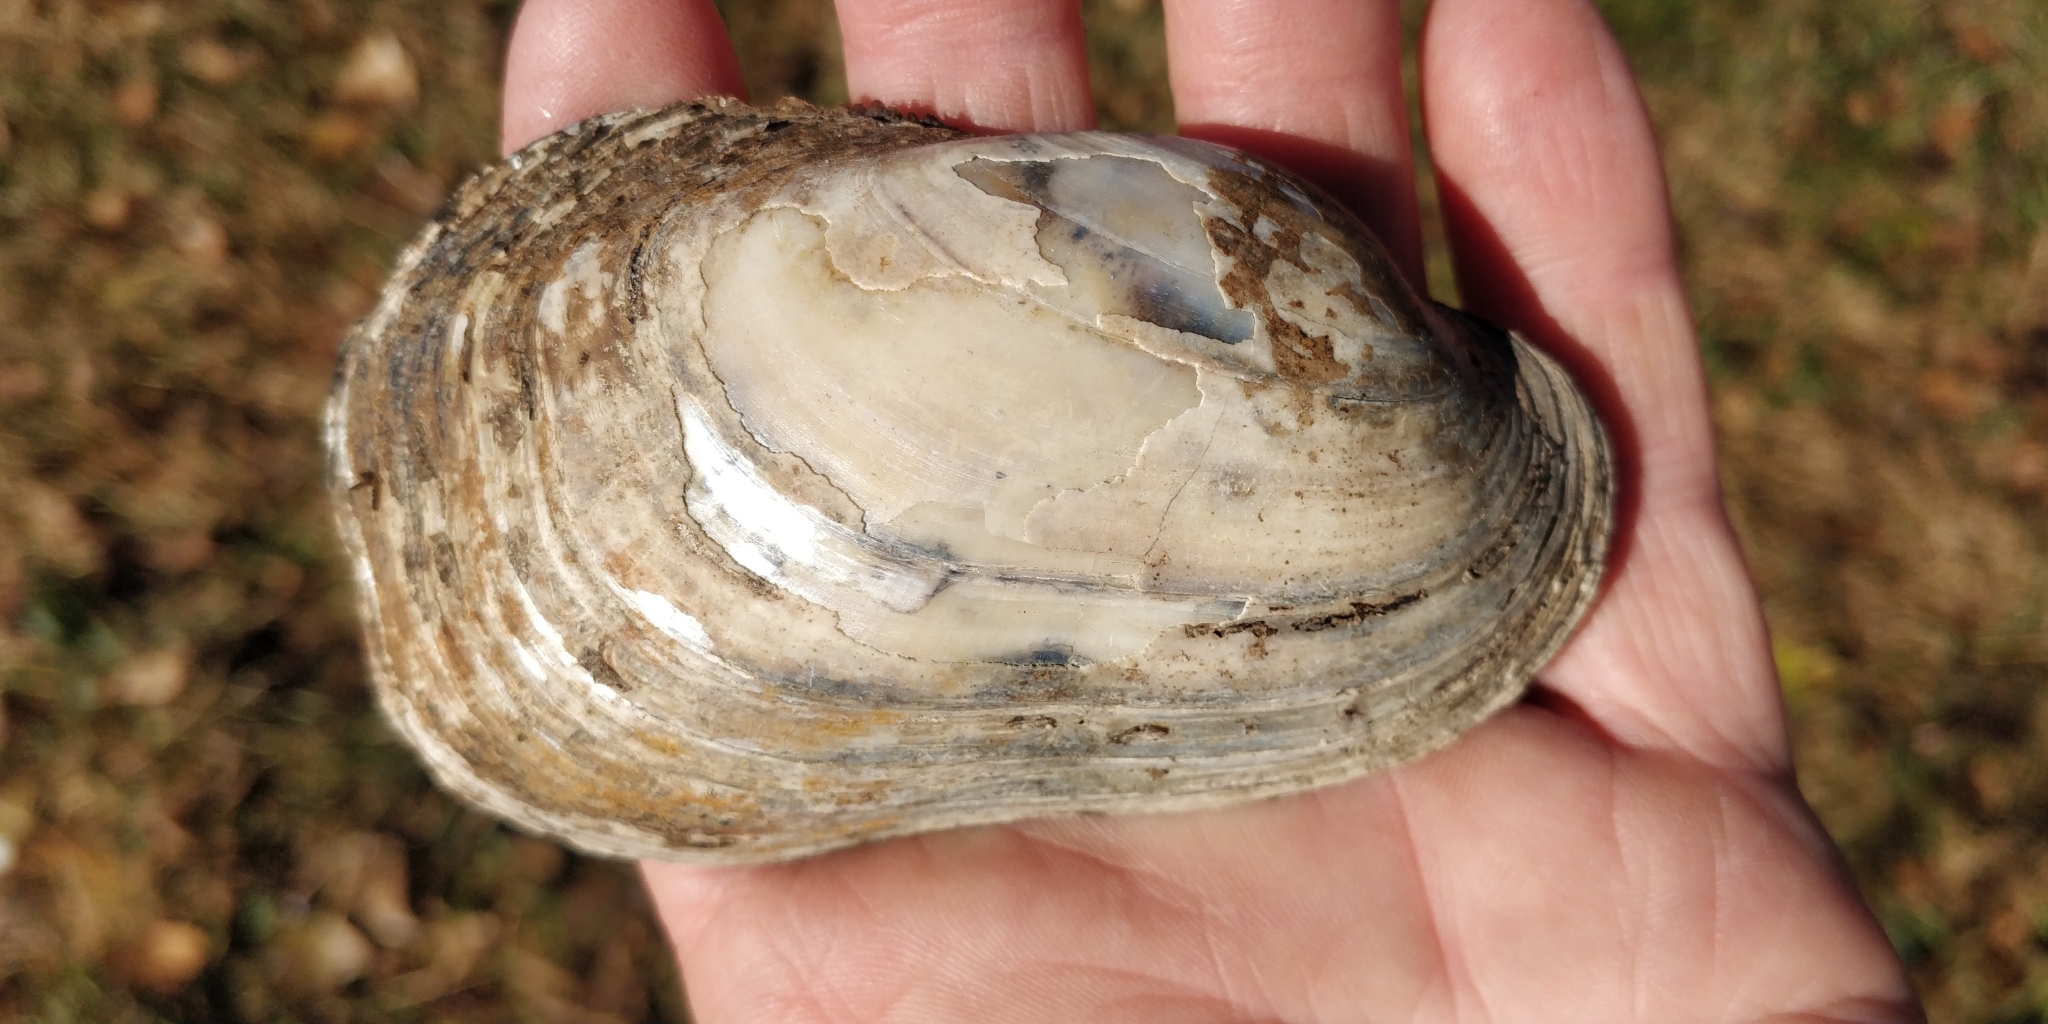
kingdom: Animalia
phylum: Mollusca
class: Bivalvia
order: Unionida
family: Unionidae
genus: Lampsilis
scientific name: Lampsilis siliquoidea
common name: Fatmucket
